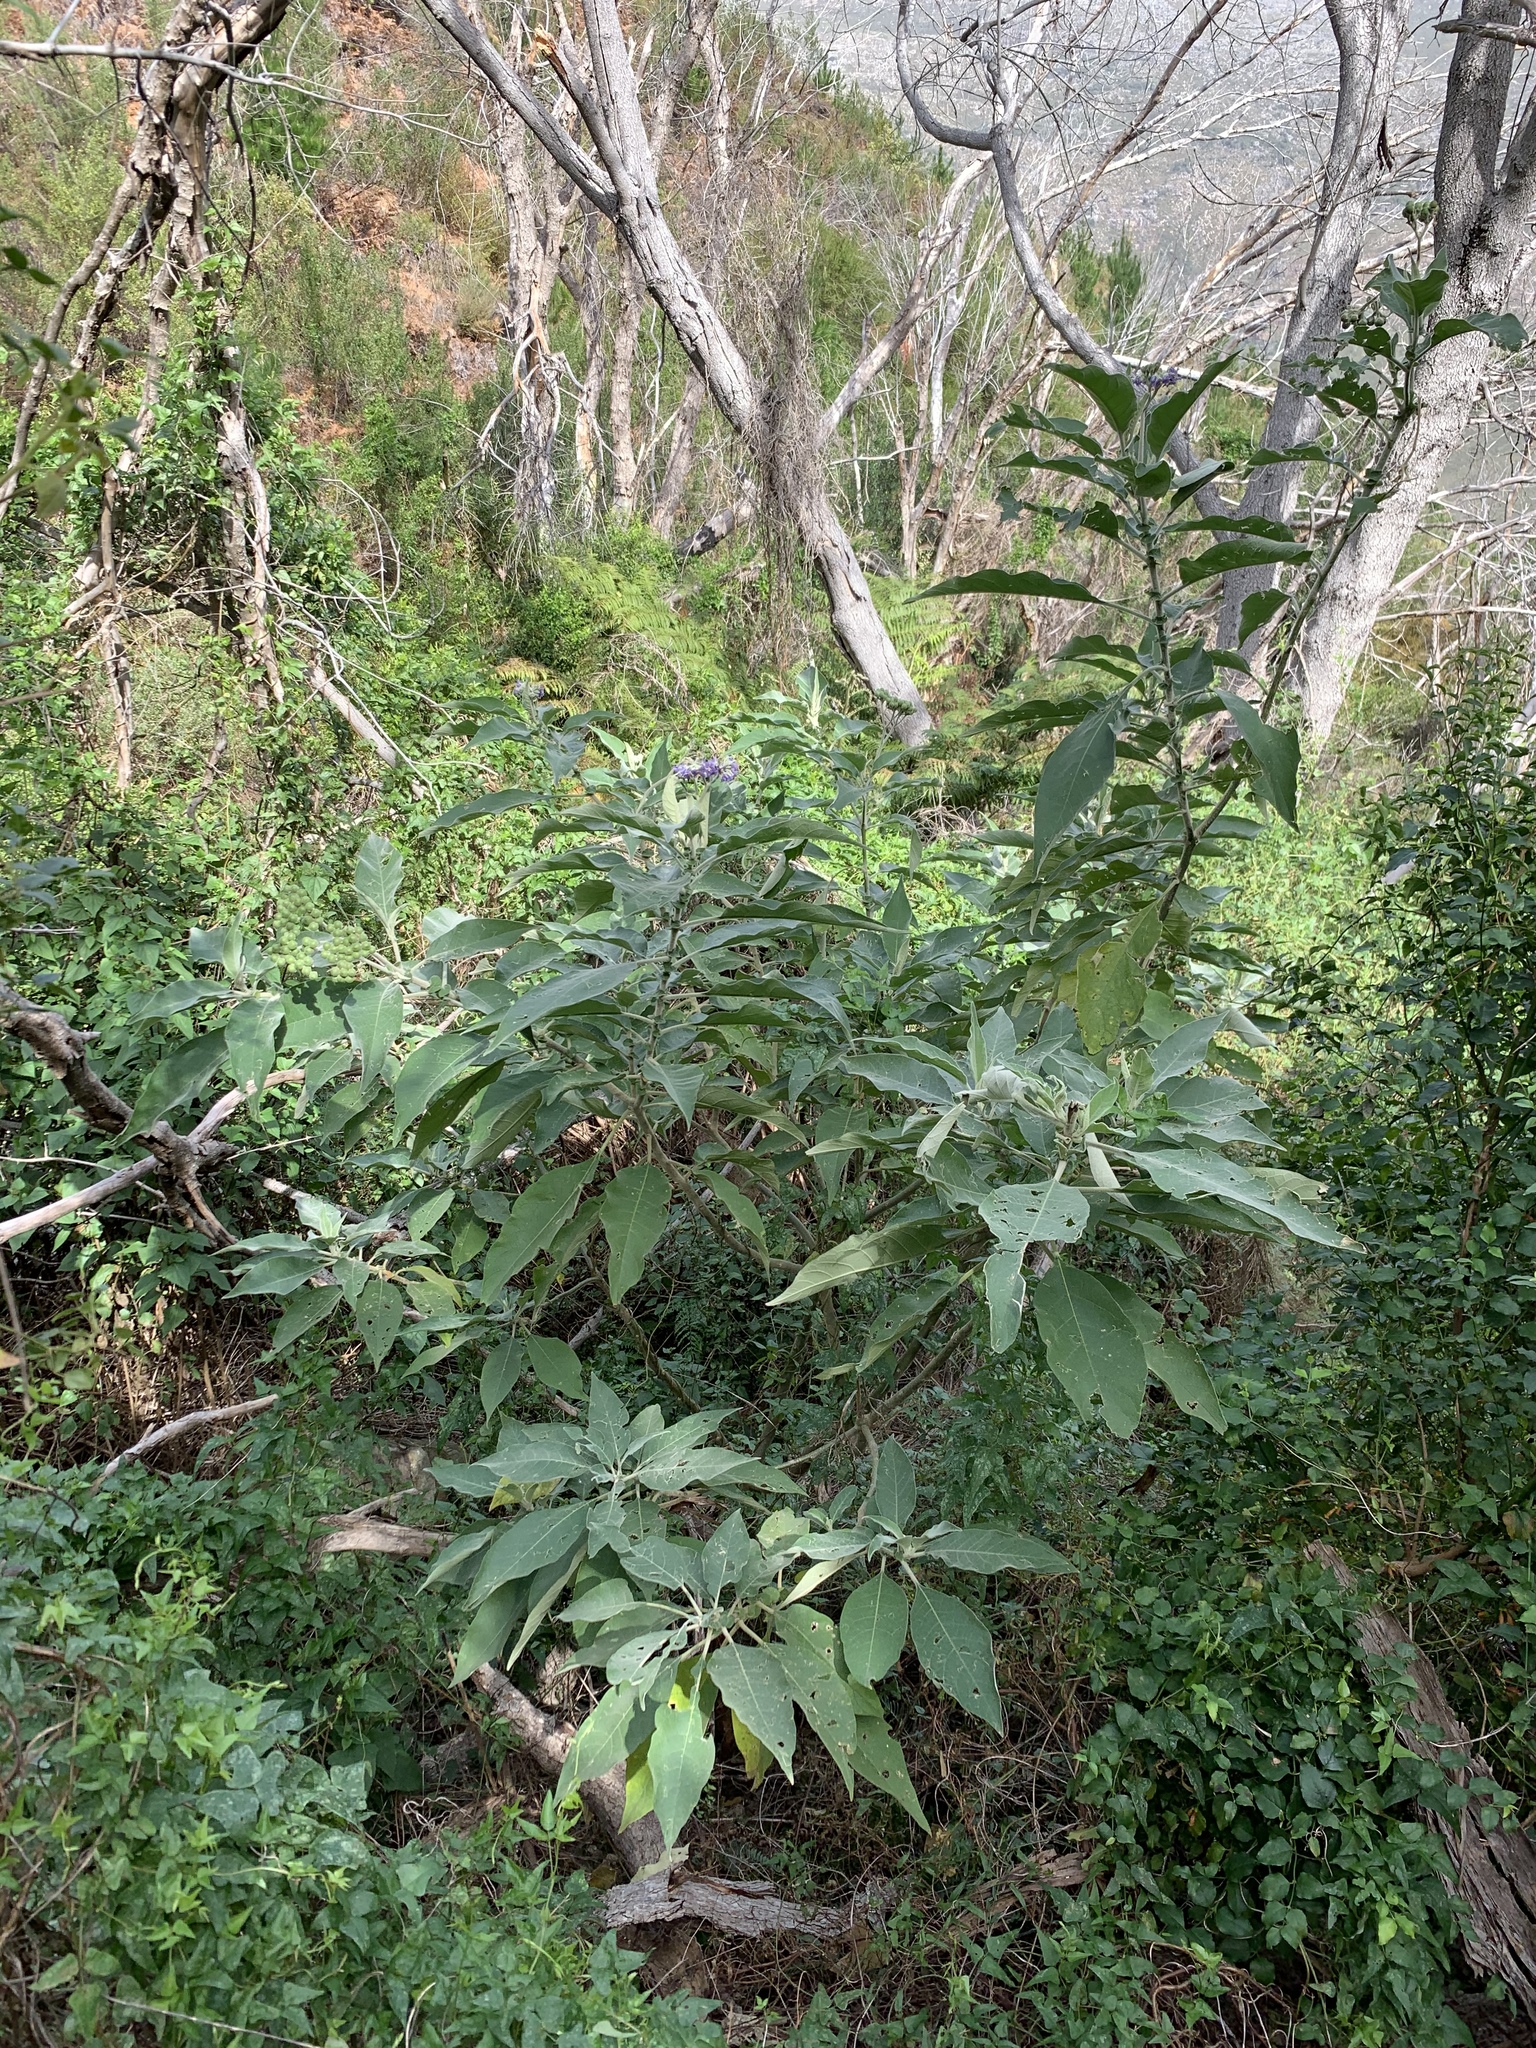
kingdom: Plantae
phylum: Tracheophyta
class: Magnoliopsida
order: Solanales
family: Solanaceae
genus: Solanum
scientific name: Solanum mauritianum
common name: Earleaf nightshade
